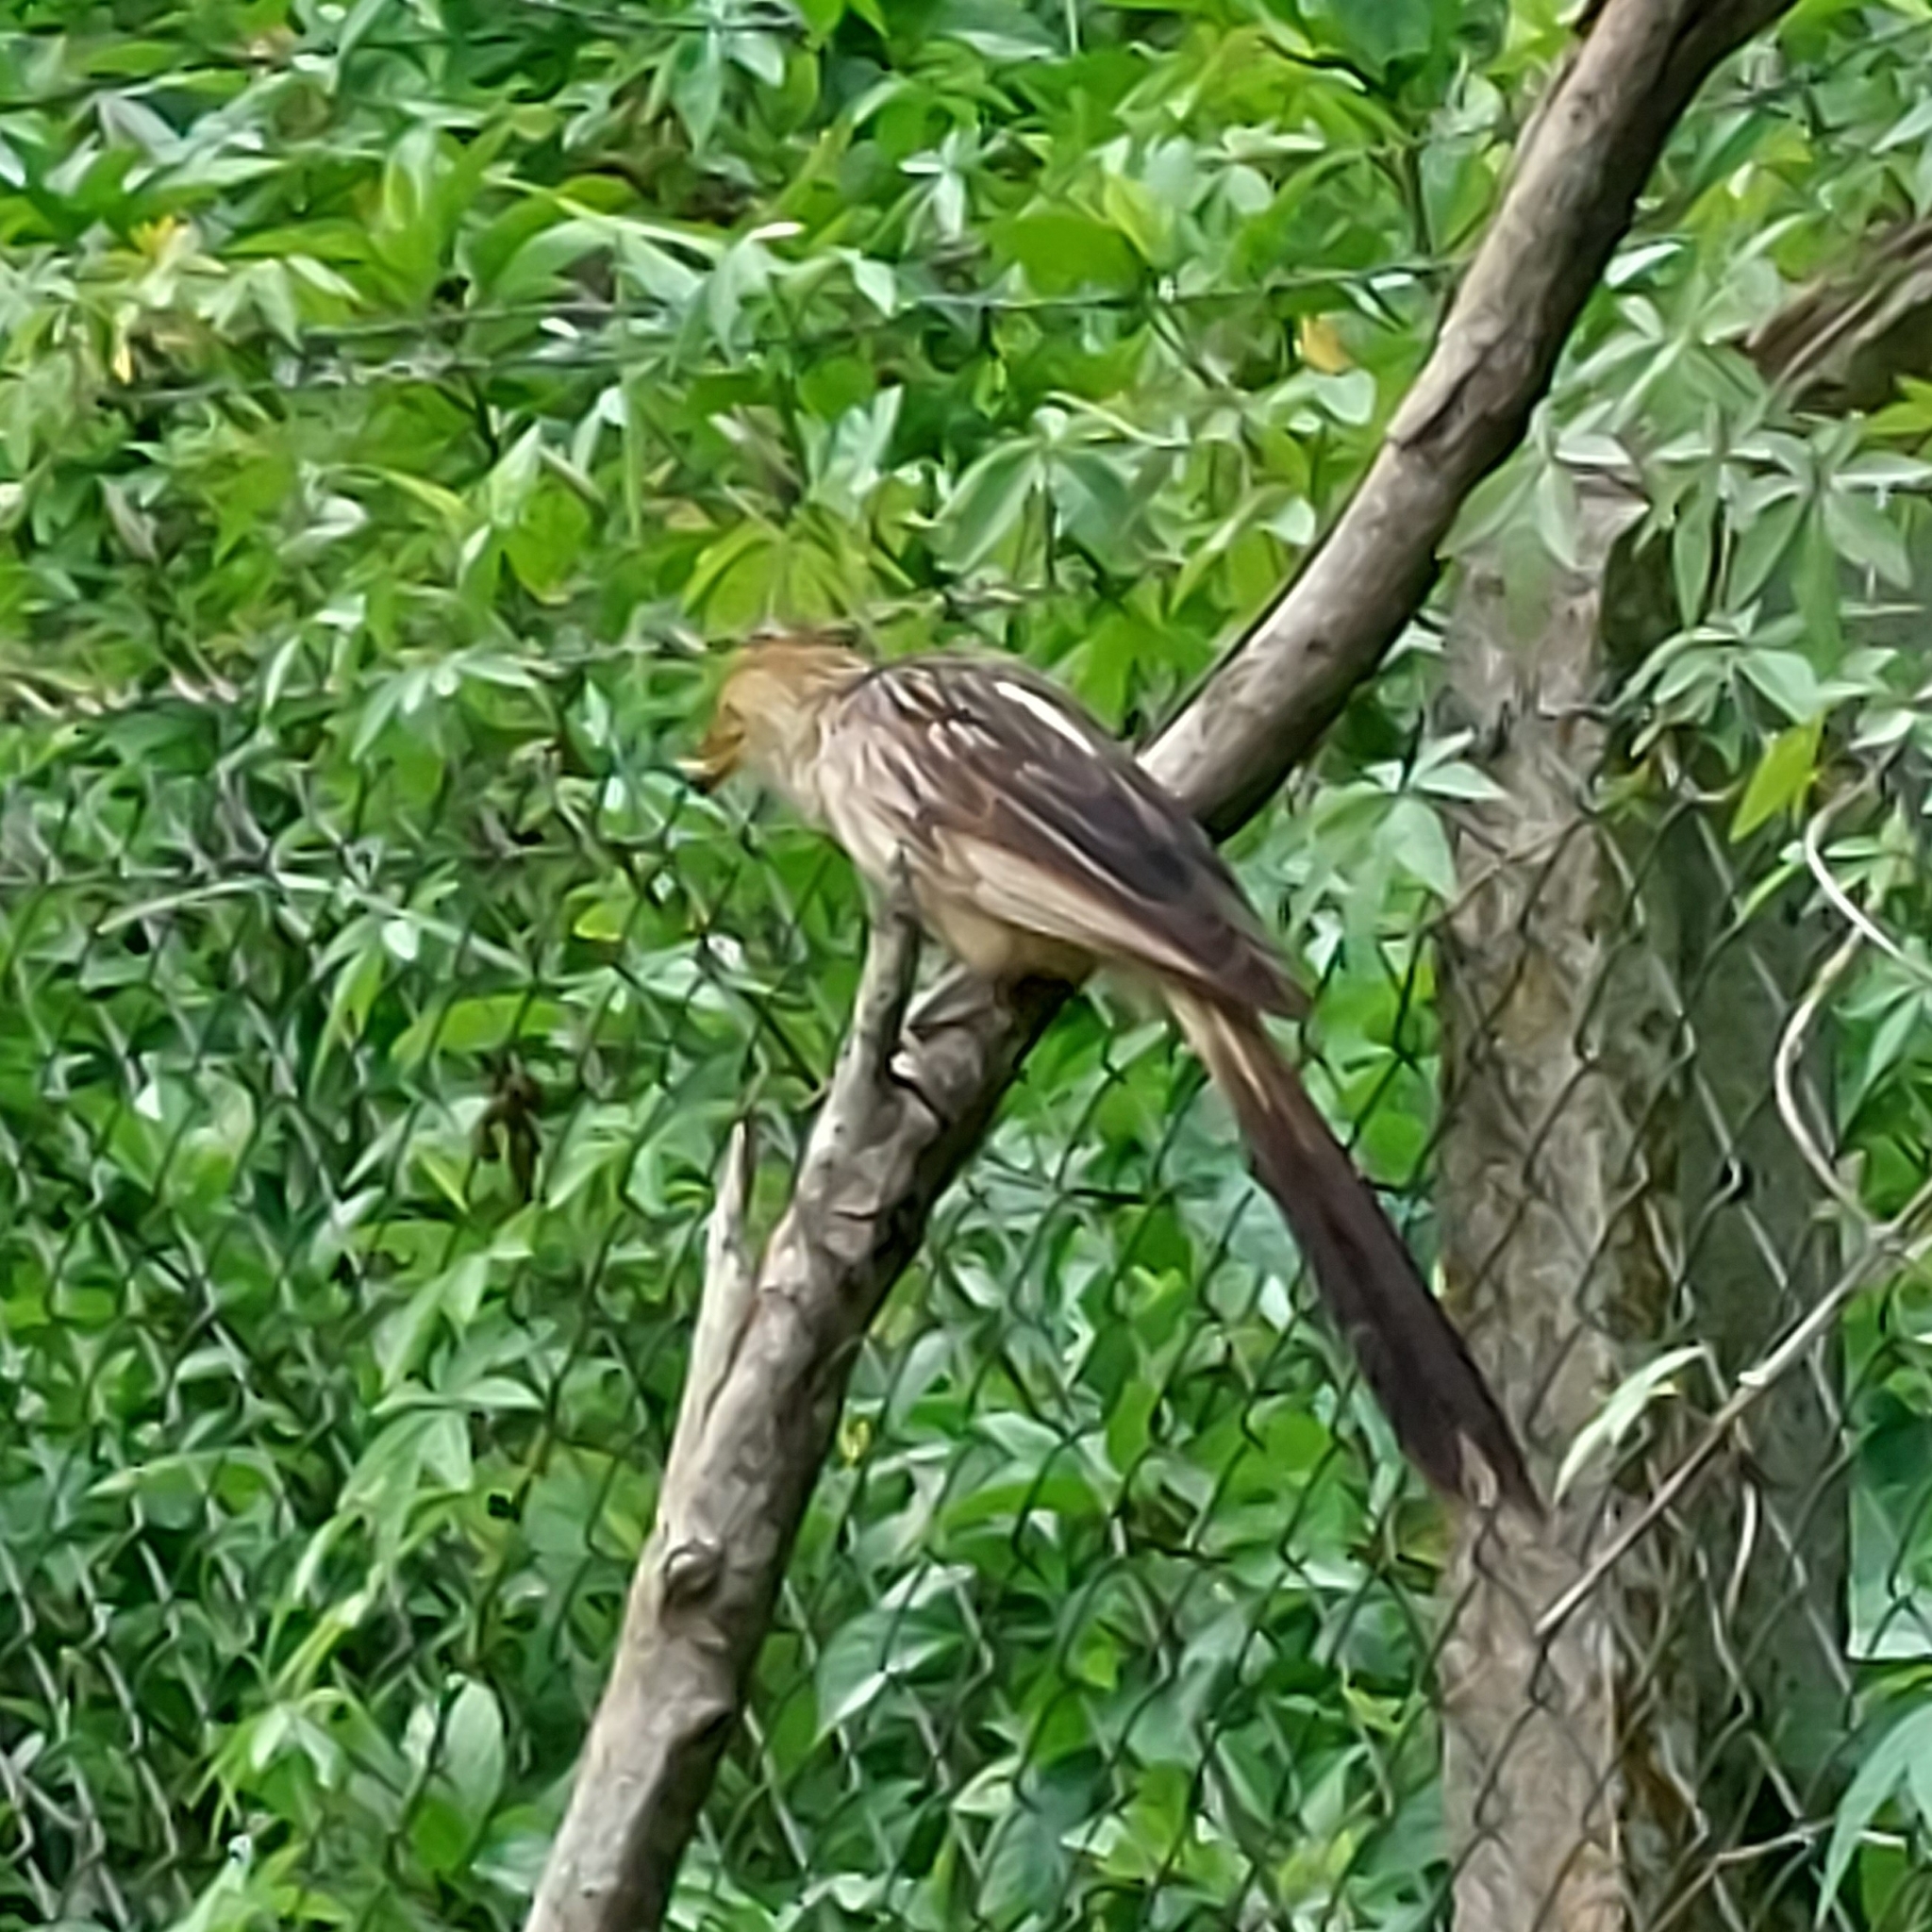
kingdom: Animalia
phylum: Chordata
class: Aves
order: Cuculiformes
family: Cuculidae
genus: Guira
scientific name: Guira guira
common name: Guira cuckoo
